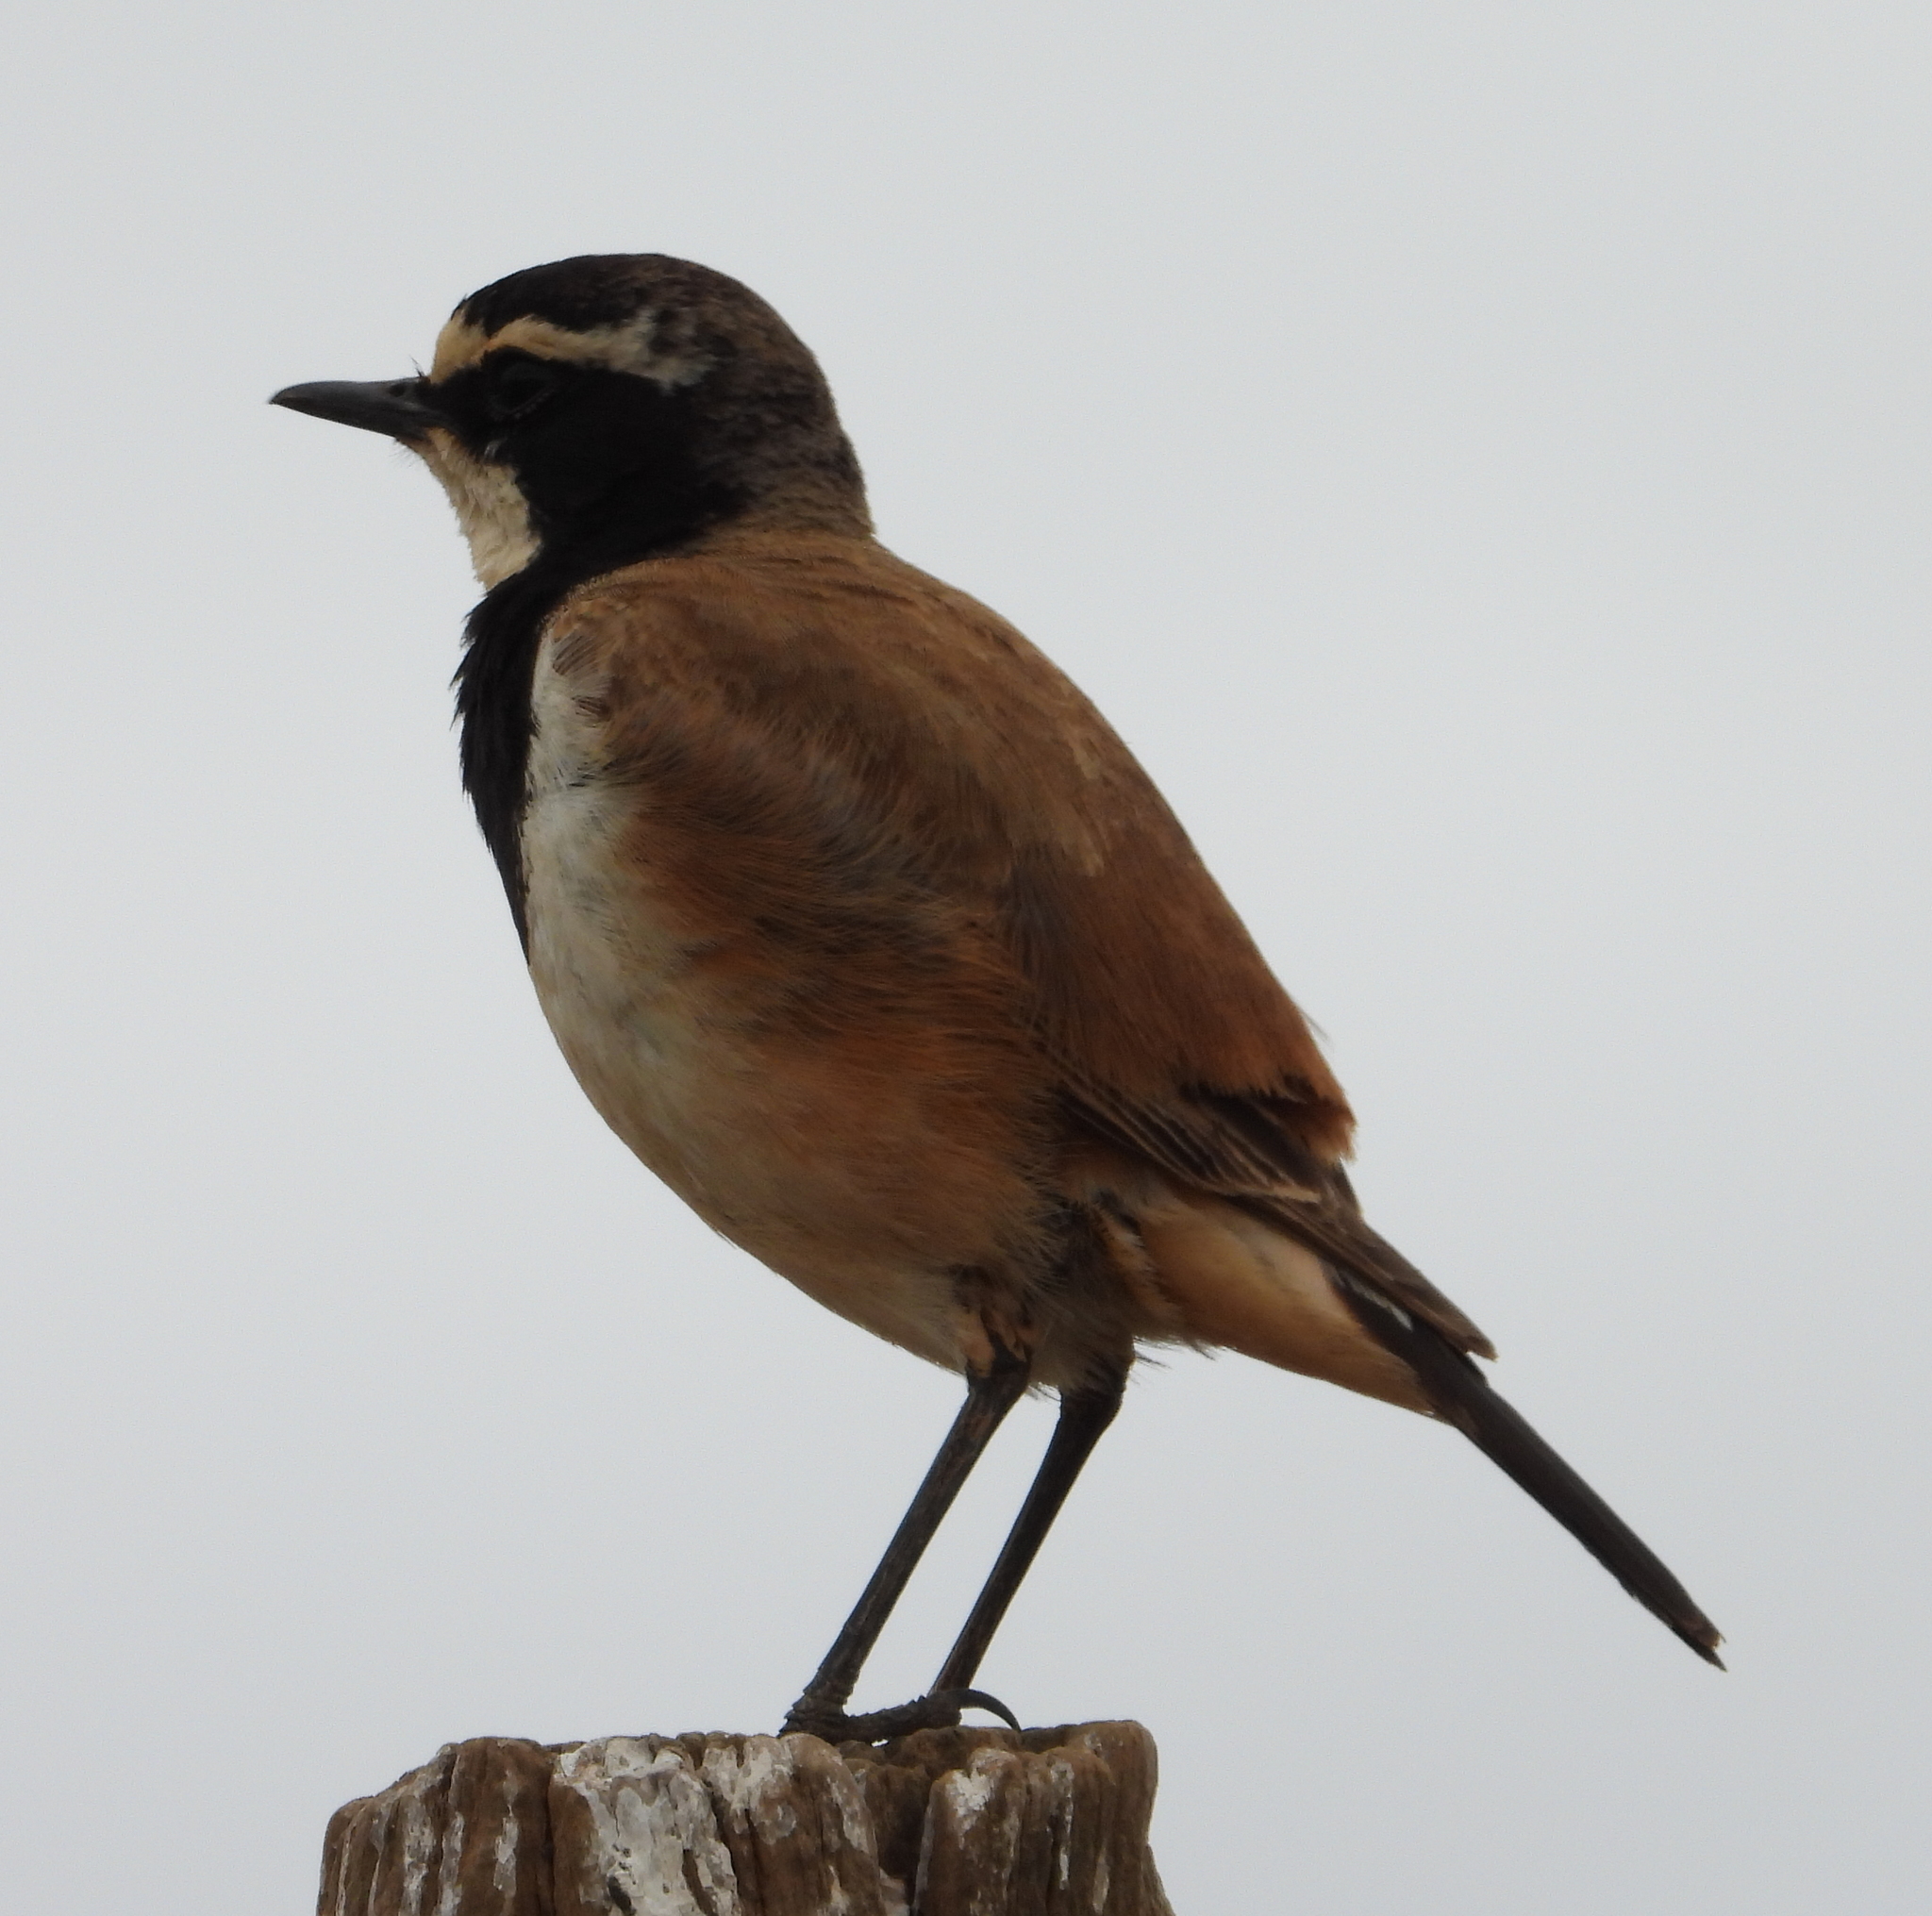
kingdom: Animalia
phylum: Chordata
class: Aves
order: Passeriformes
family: Muscicapidae
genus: Oenanthe
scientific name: Oenanthe pileata
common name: Capped wheatear
